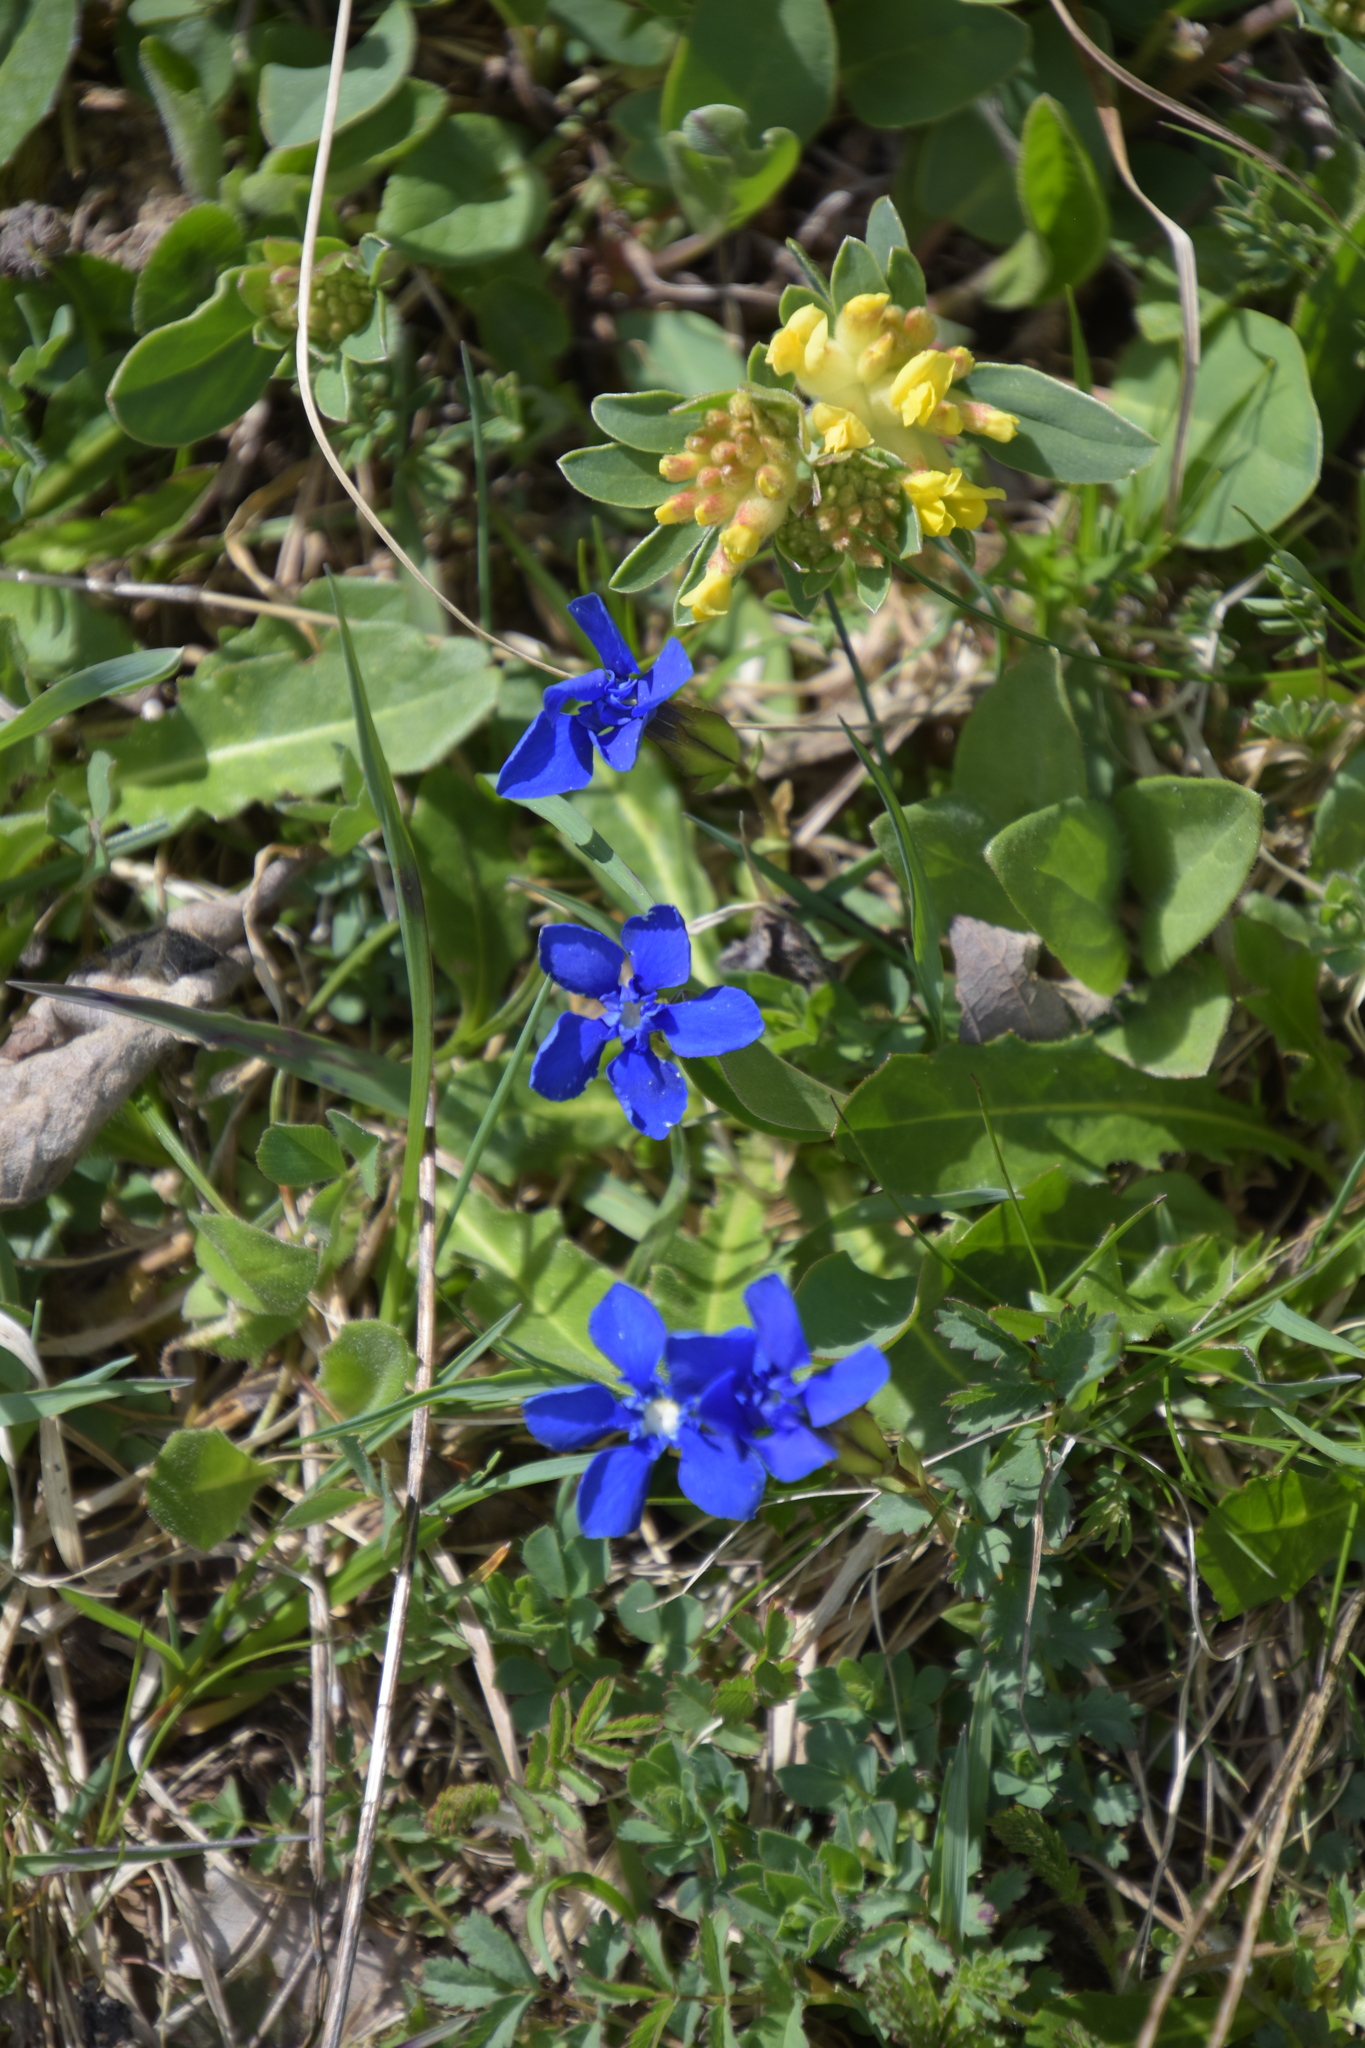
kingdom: Plantae
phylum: Tracheophyta
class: Magnoliopsida
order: Gentianales
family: Gentianaceae
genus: Gentiana
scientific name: Gentiana verna
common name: Spring gentian
